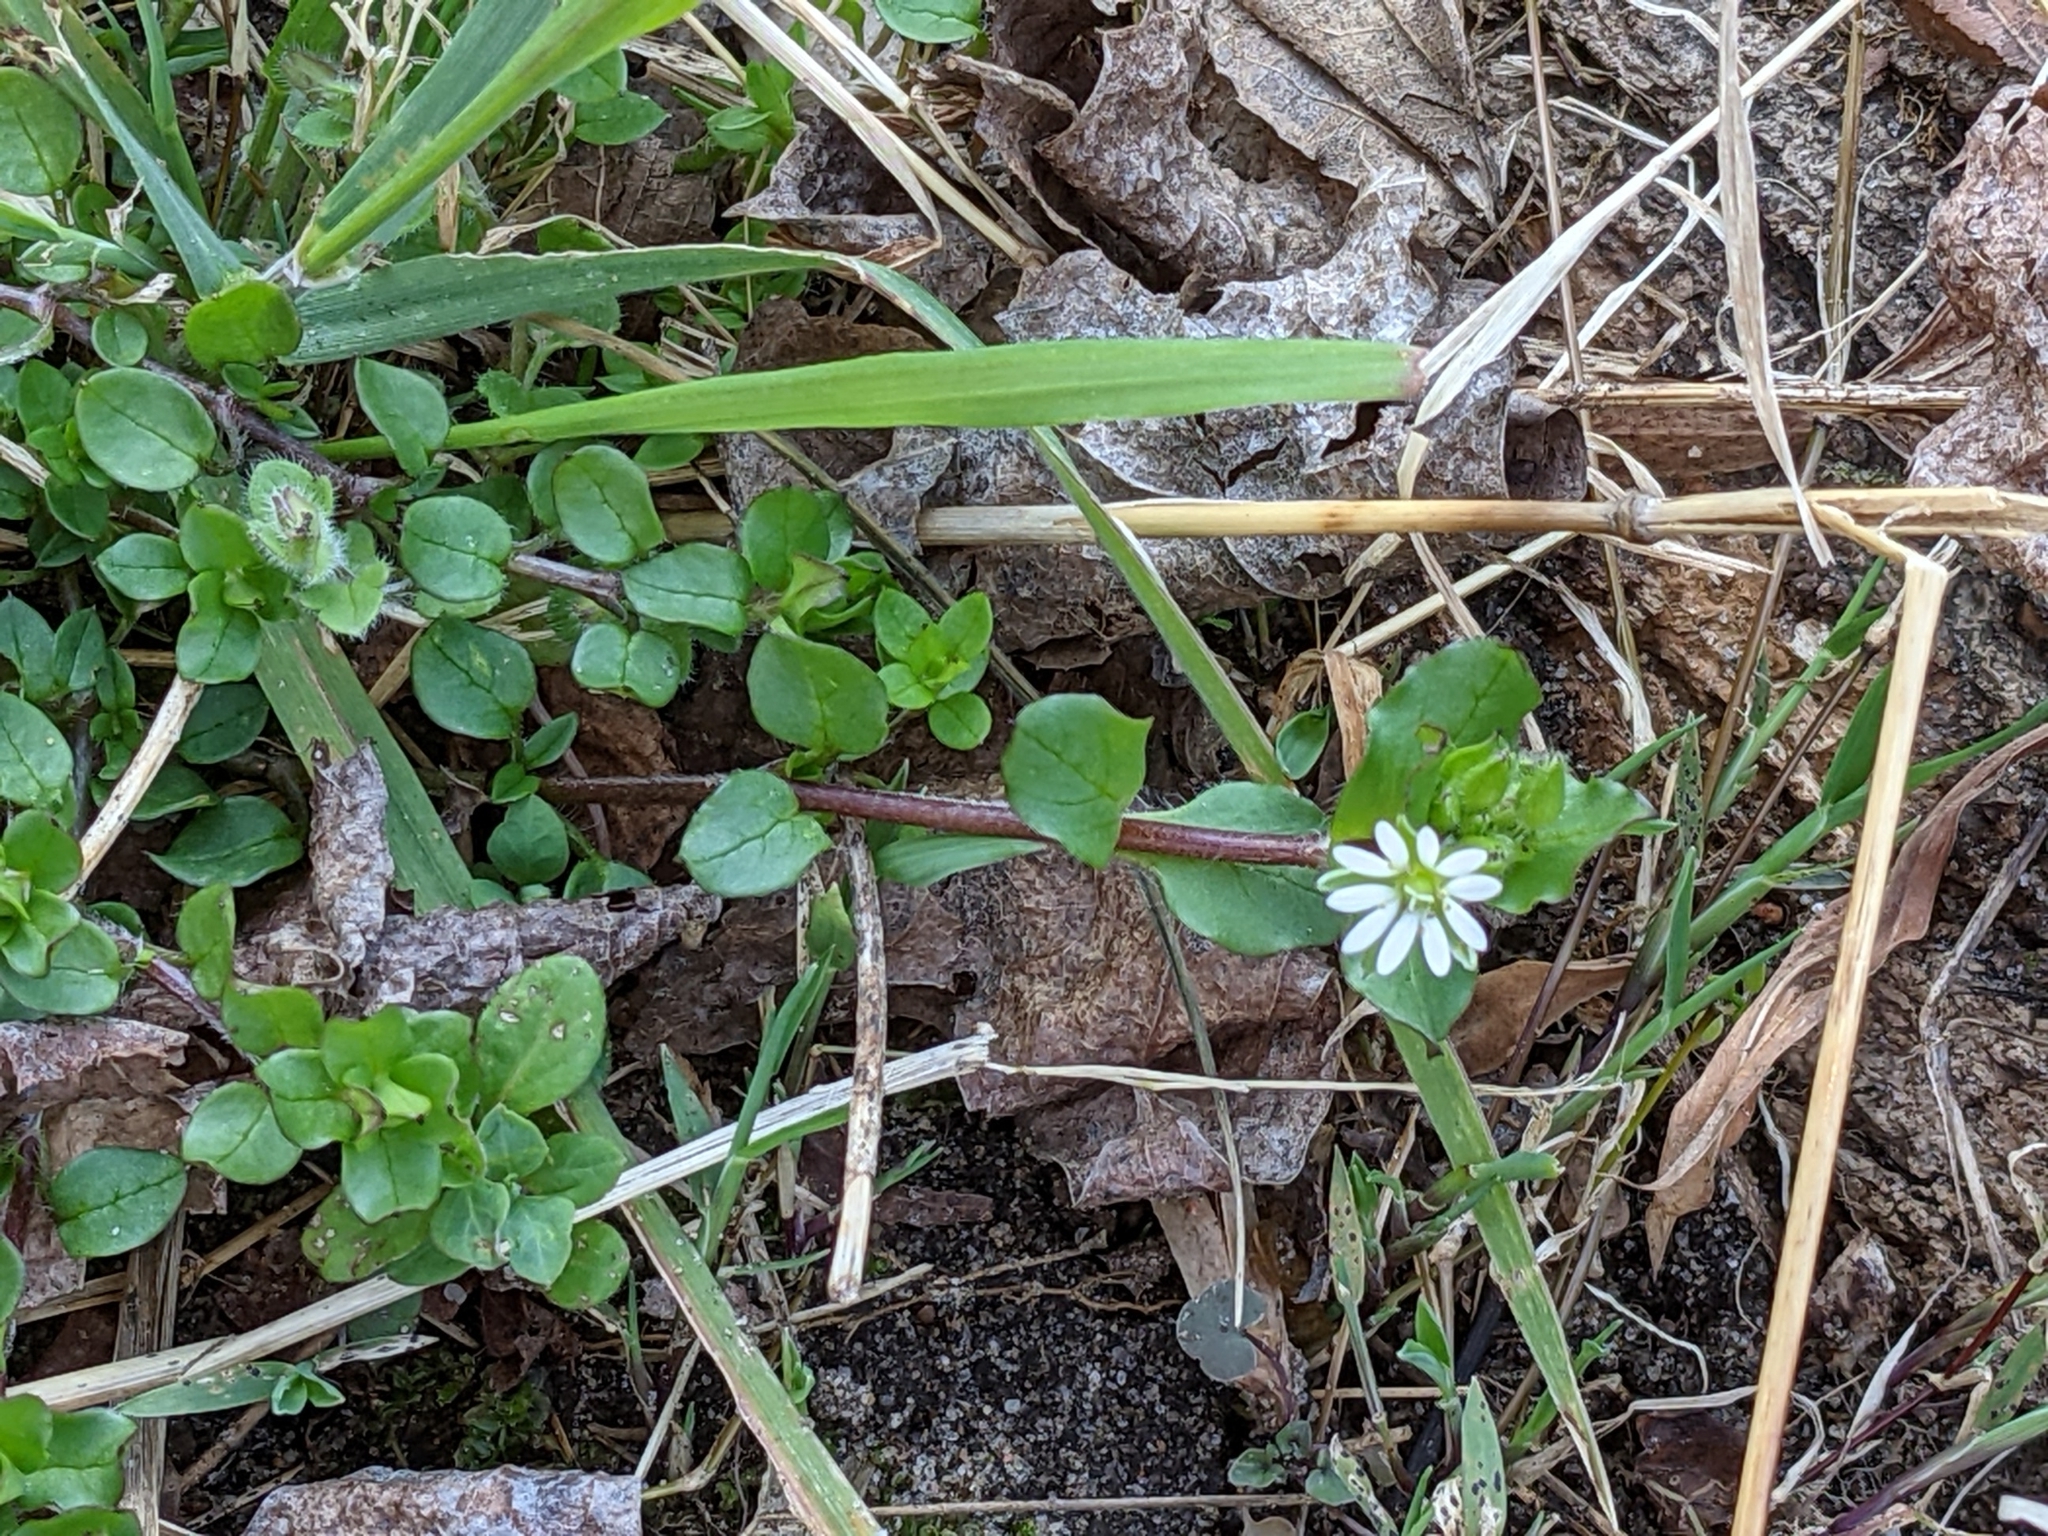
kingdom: Plantae
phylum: Tracheophyta
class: Magnoliopsida
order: Caryophyllales
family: Caryophyllaceae
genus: Stellaria
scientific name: Stellaria media
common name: Common chickweed
